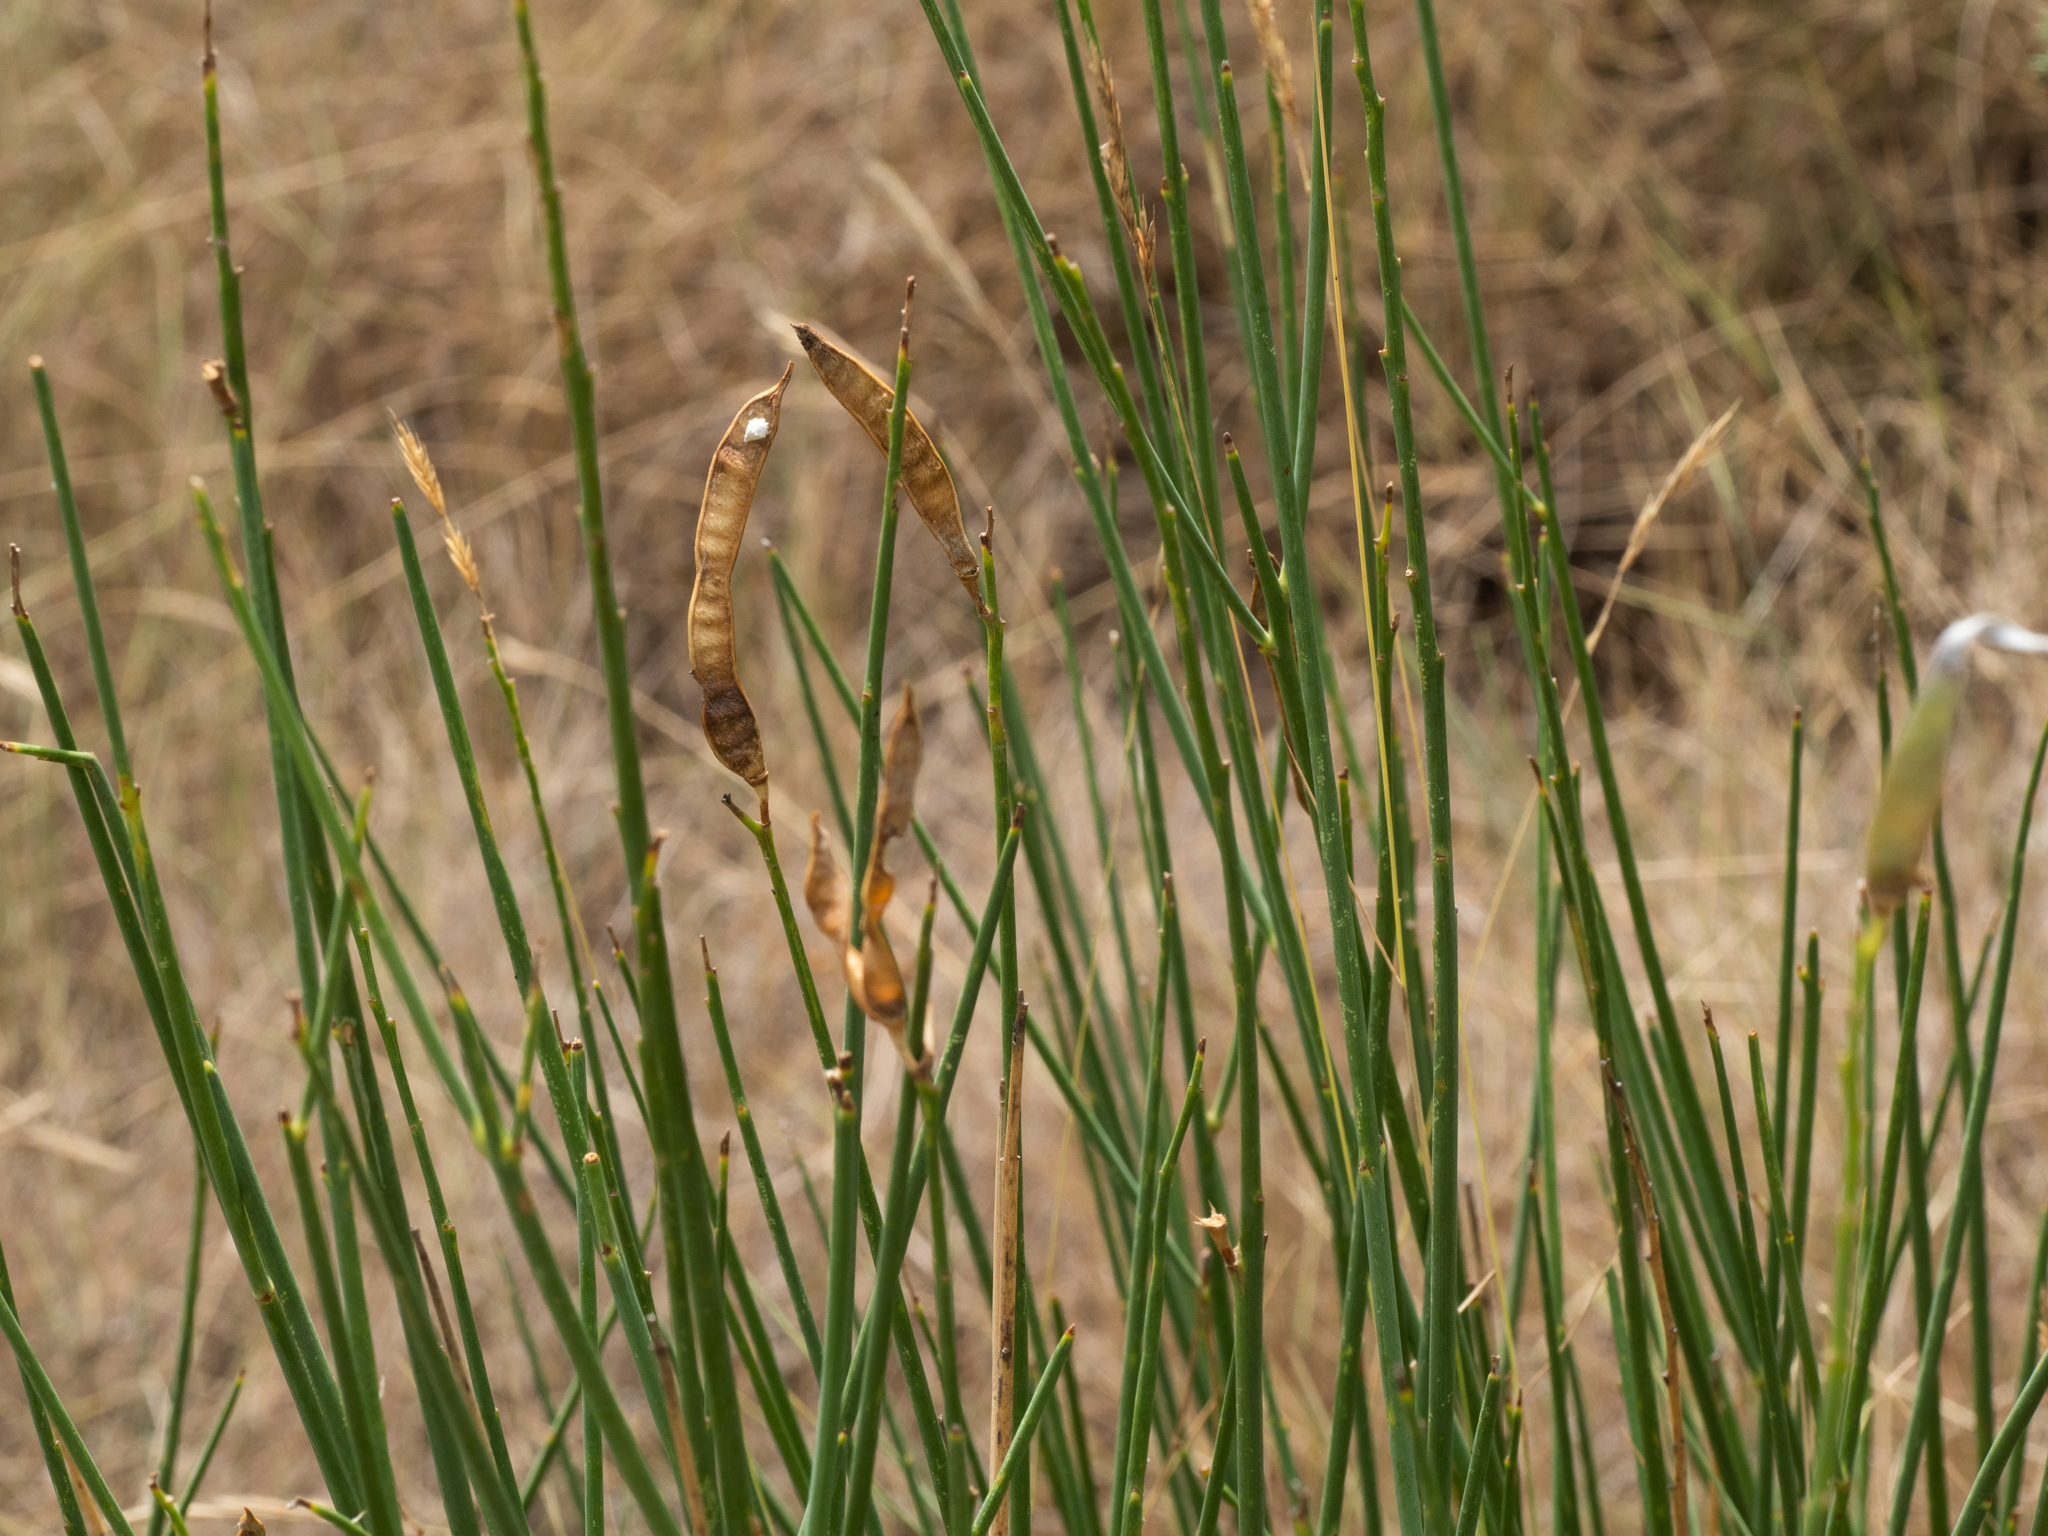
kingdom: Plantae
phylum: Tracheophyta
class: Magnoliopsida
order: Fabales
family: Fabaceae
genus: Spartium
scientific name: Spartium junceum
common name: Spanish broom
